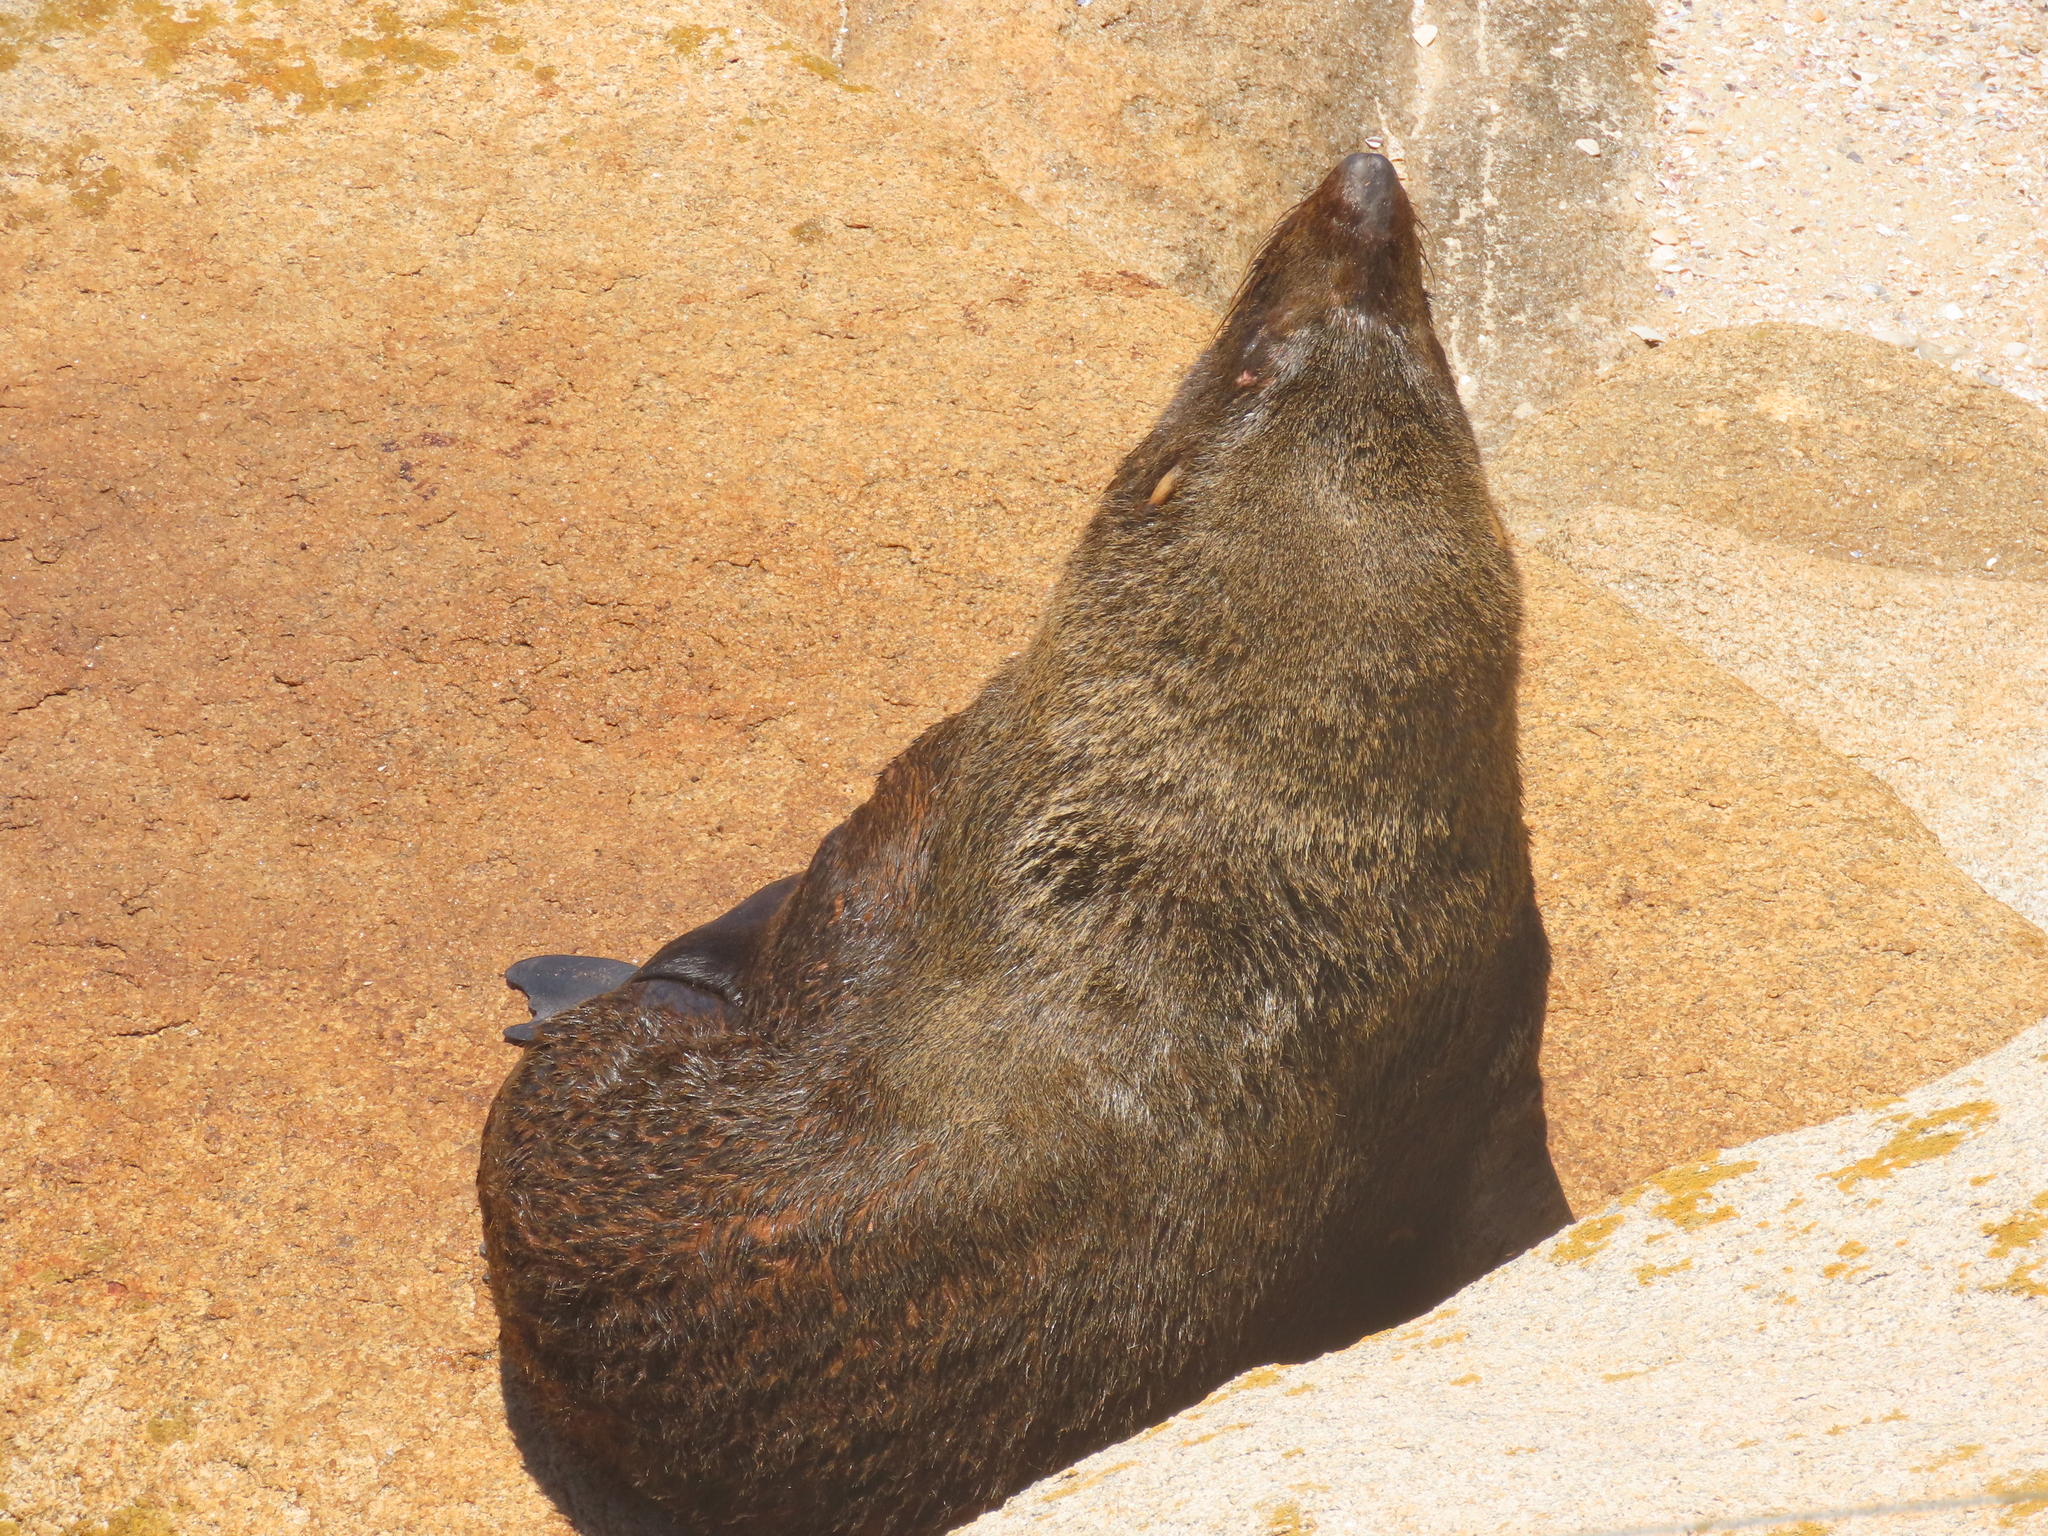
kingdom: Animalia
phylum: Chordata
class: Mammalia
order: Carnivora
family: Otariidae
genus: Arctocephalus
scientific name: Arctocephalus australis
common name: South american fur seal
